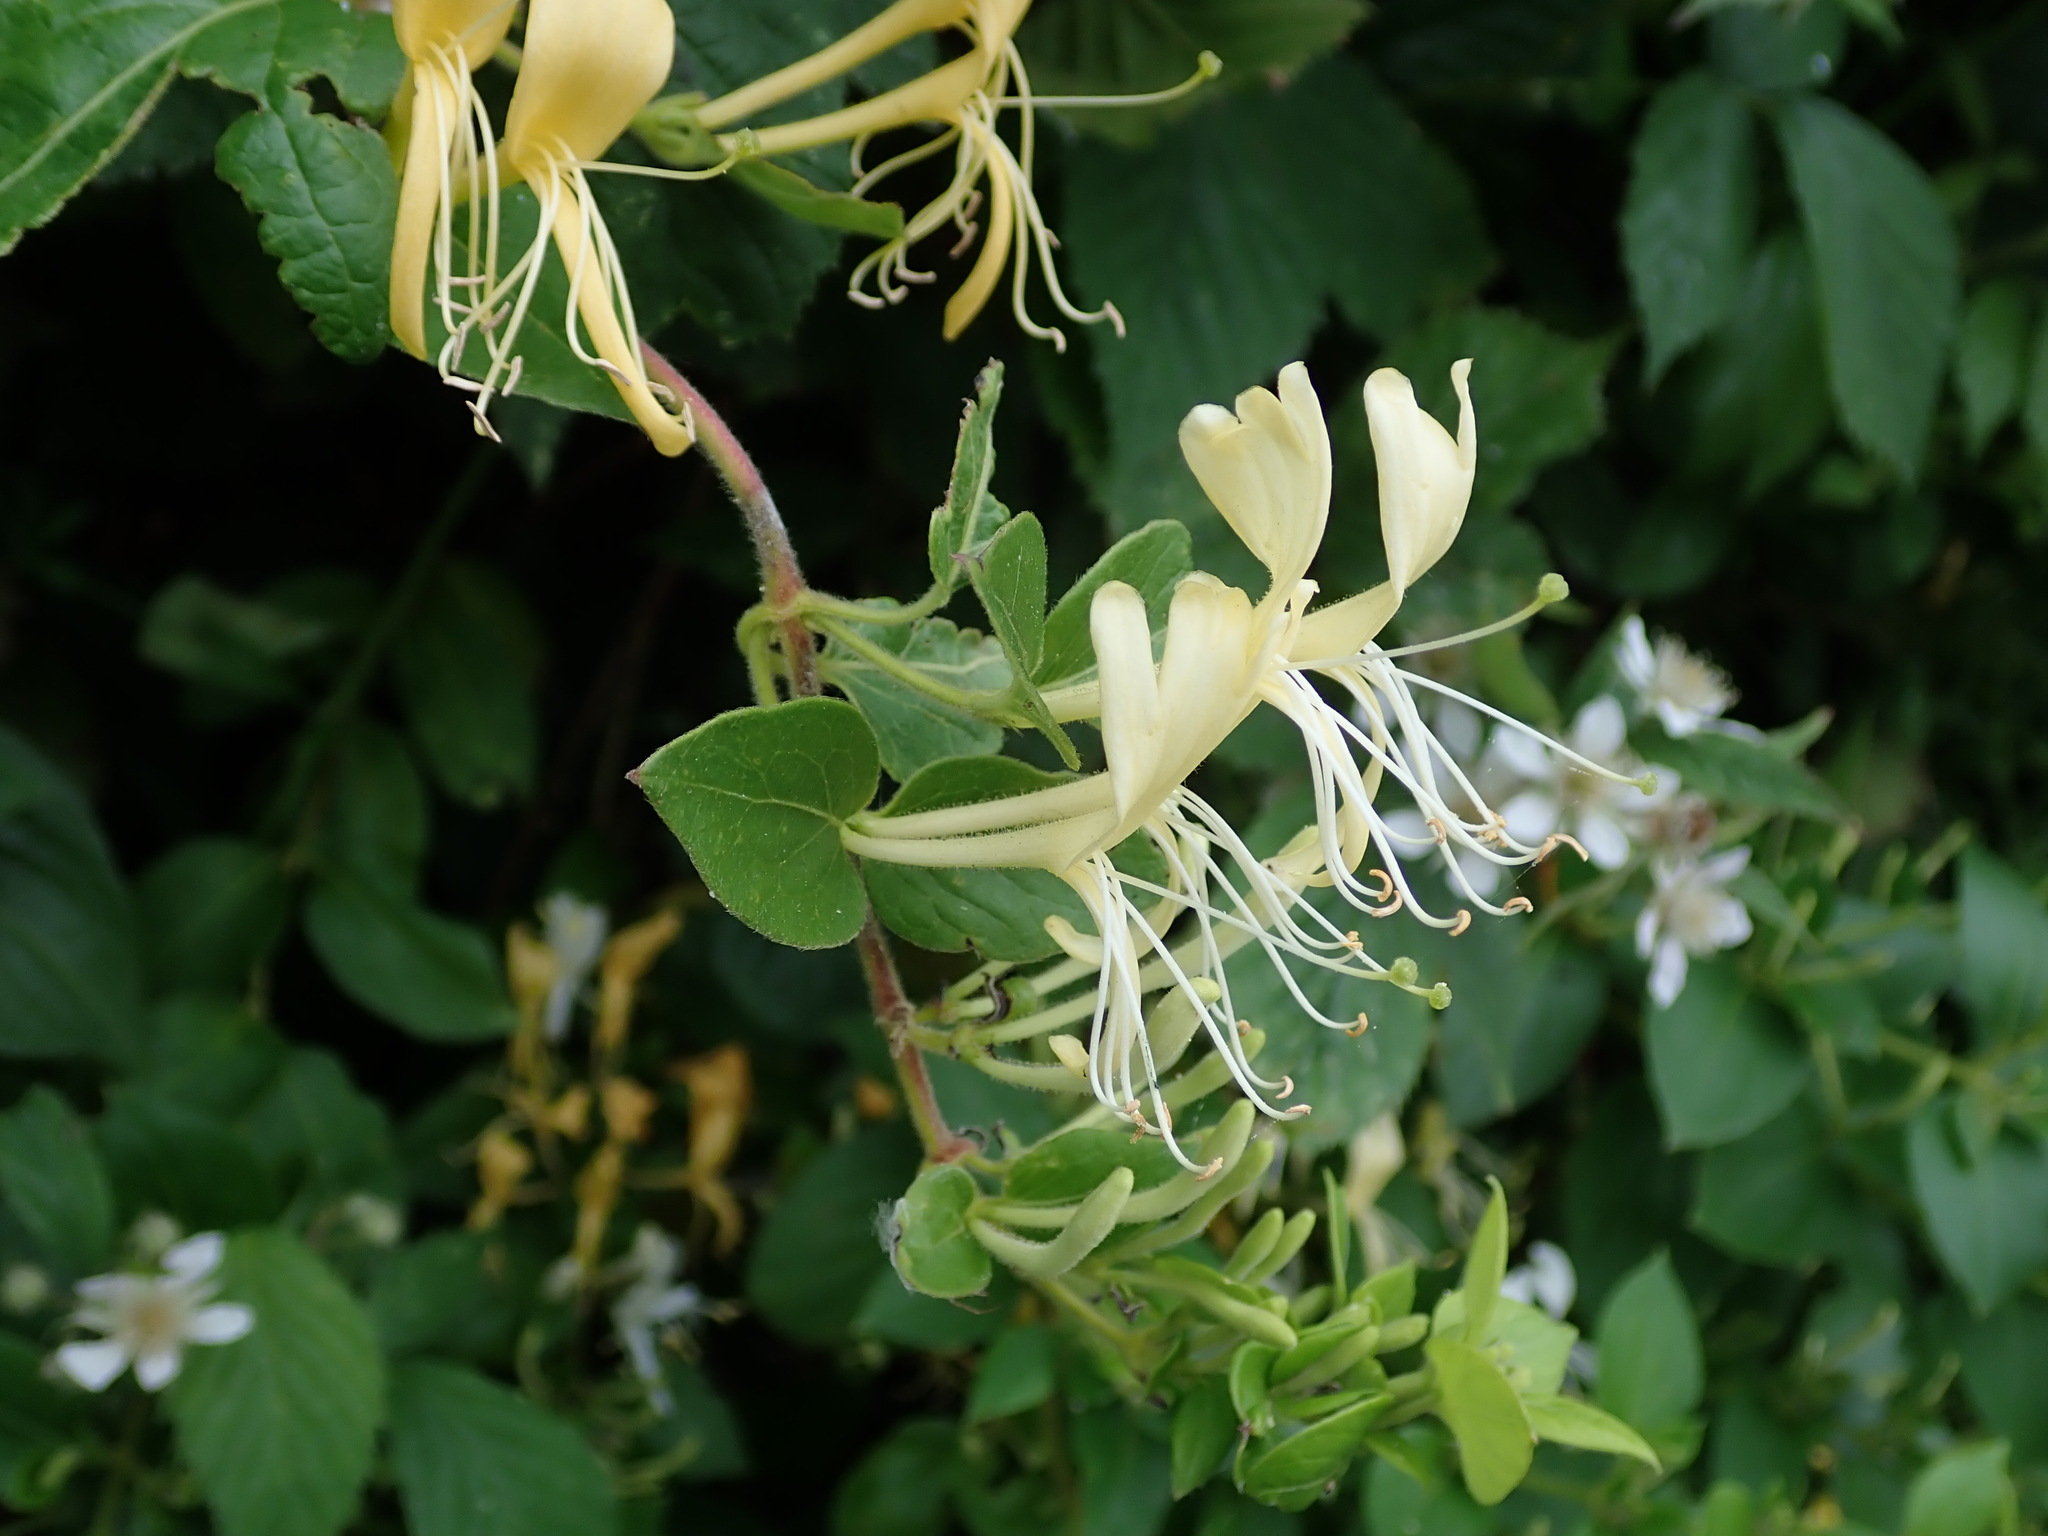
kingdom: Plantae
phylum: Tracheophyta
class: Magnoliopsida
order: Dipsacales
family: Caprifoliaceae
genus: Lonicera
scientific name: Lonicera japonica
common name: Japanese honeysuckle
